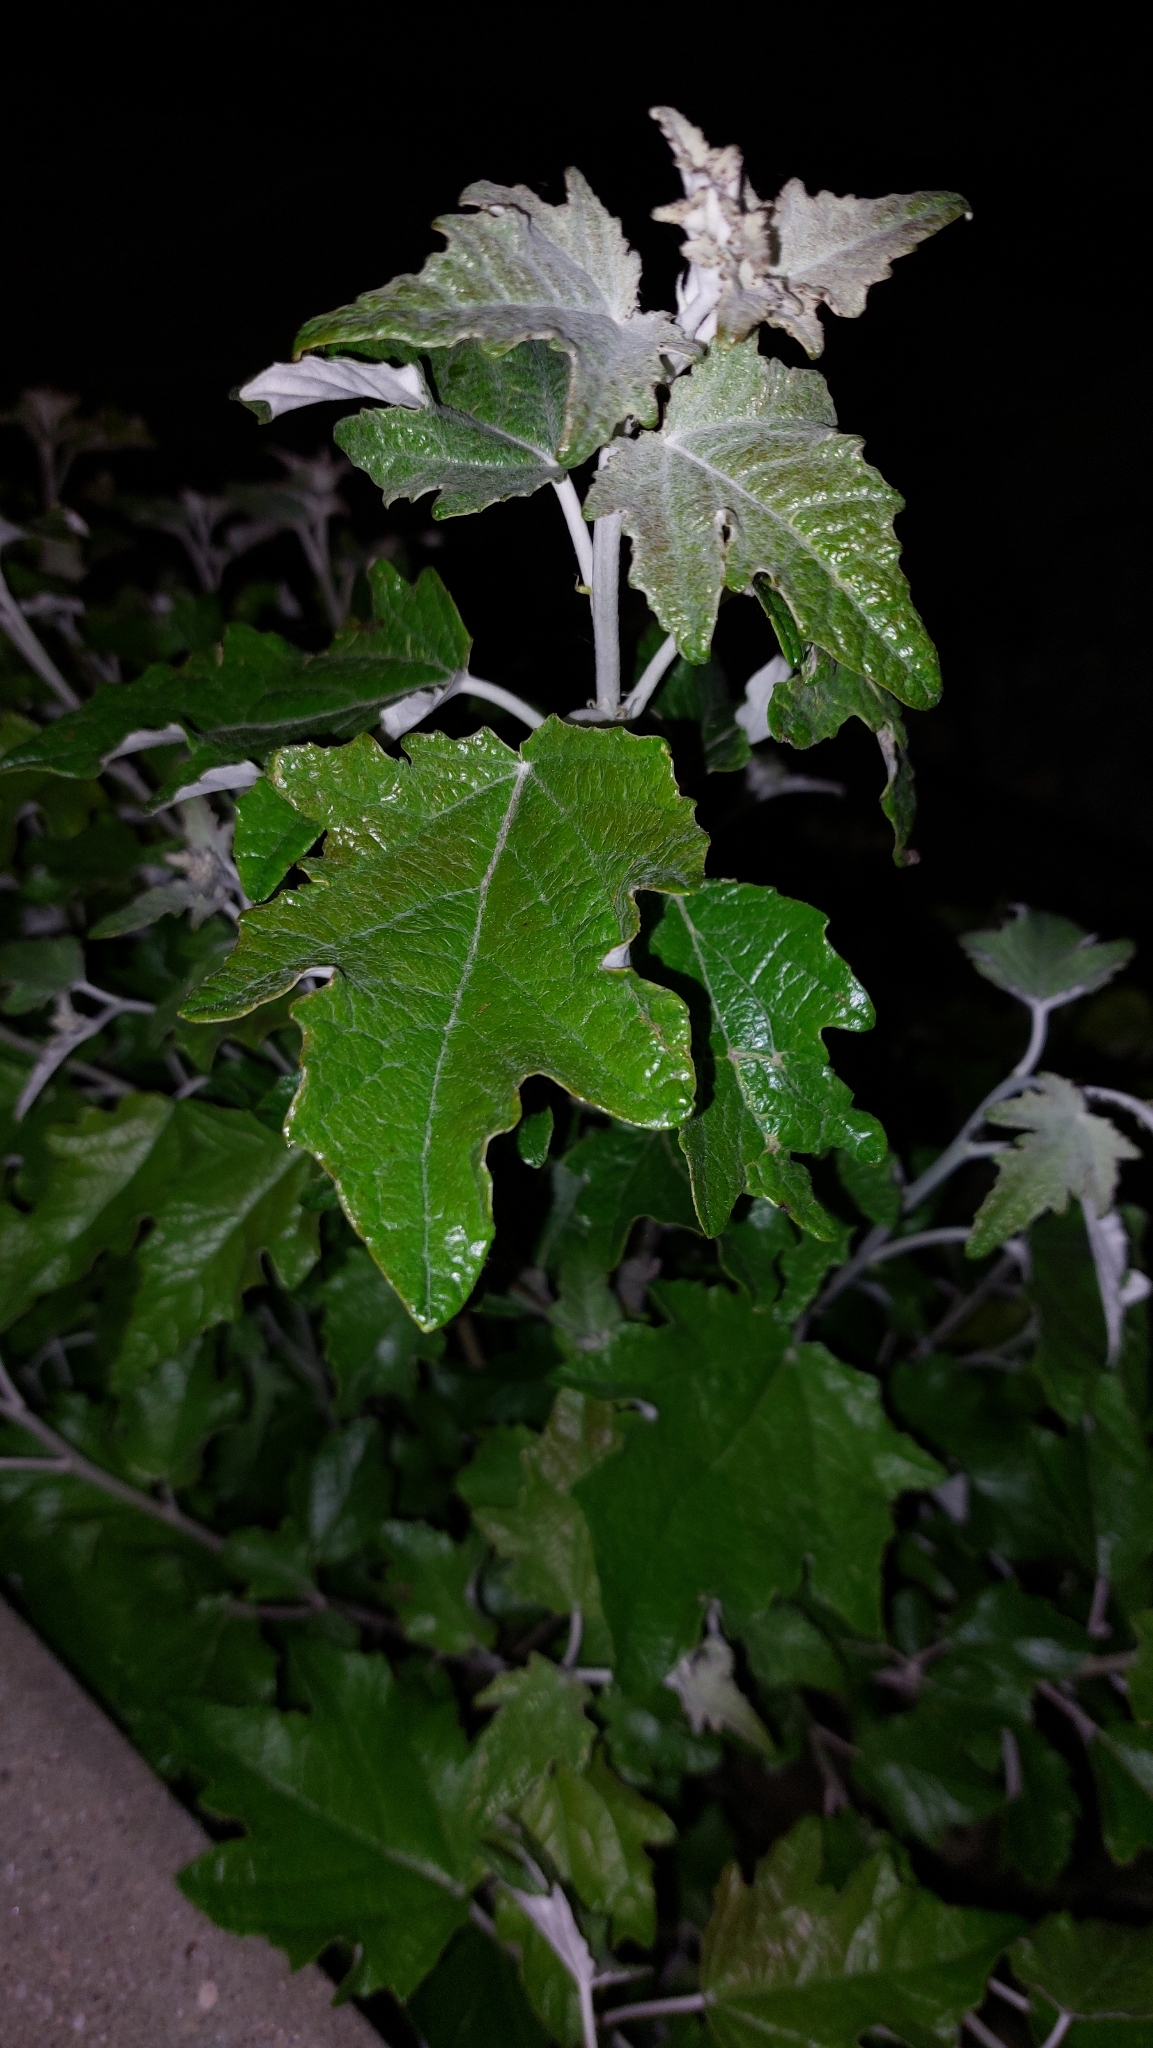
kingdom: Plantae
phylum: Tracheophyta
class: Magnoliopsida
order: Malpighiales
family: Salicaceae
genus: Populus
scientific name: Populus alba
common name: White poplar
